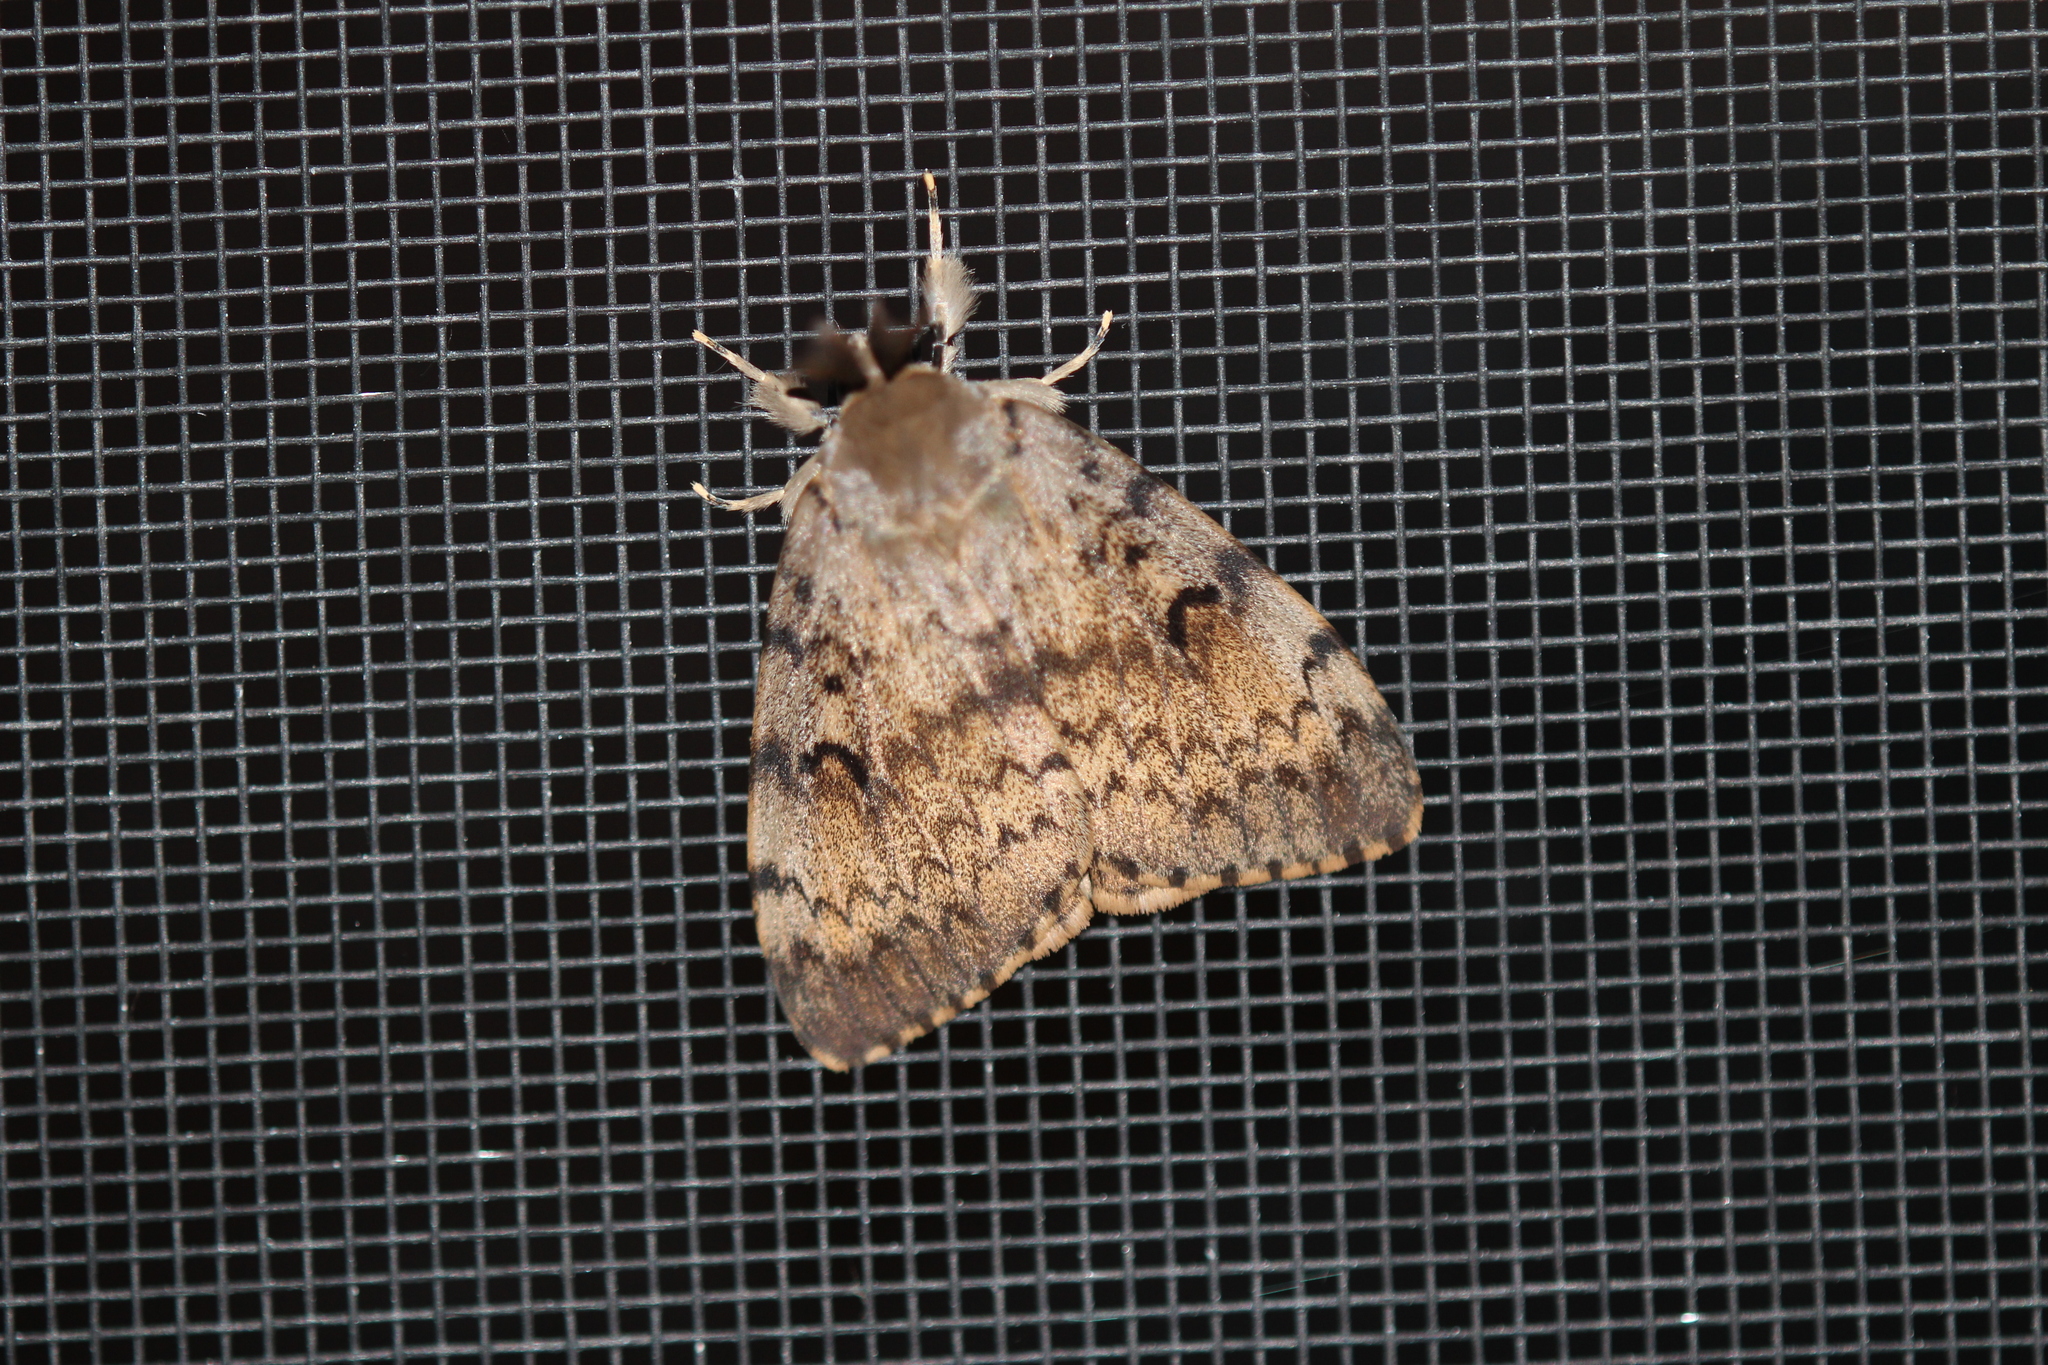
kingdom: Animalia
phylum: Arthropoda
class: Insecta
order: Lepidoptera
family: Erebidae
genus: Lymantria
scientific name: Lymantria dispar
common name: Gypsy moth
